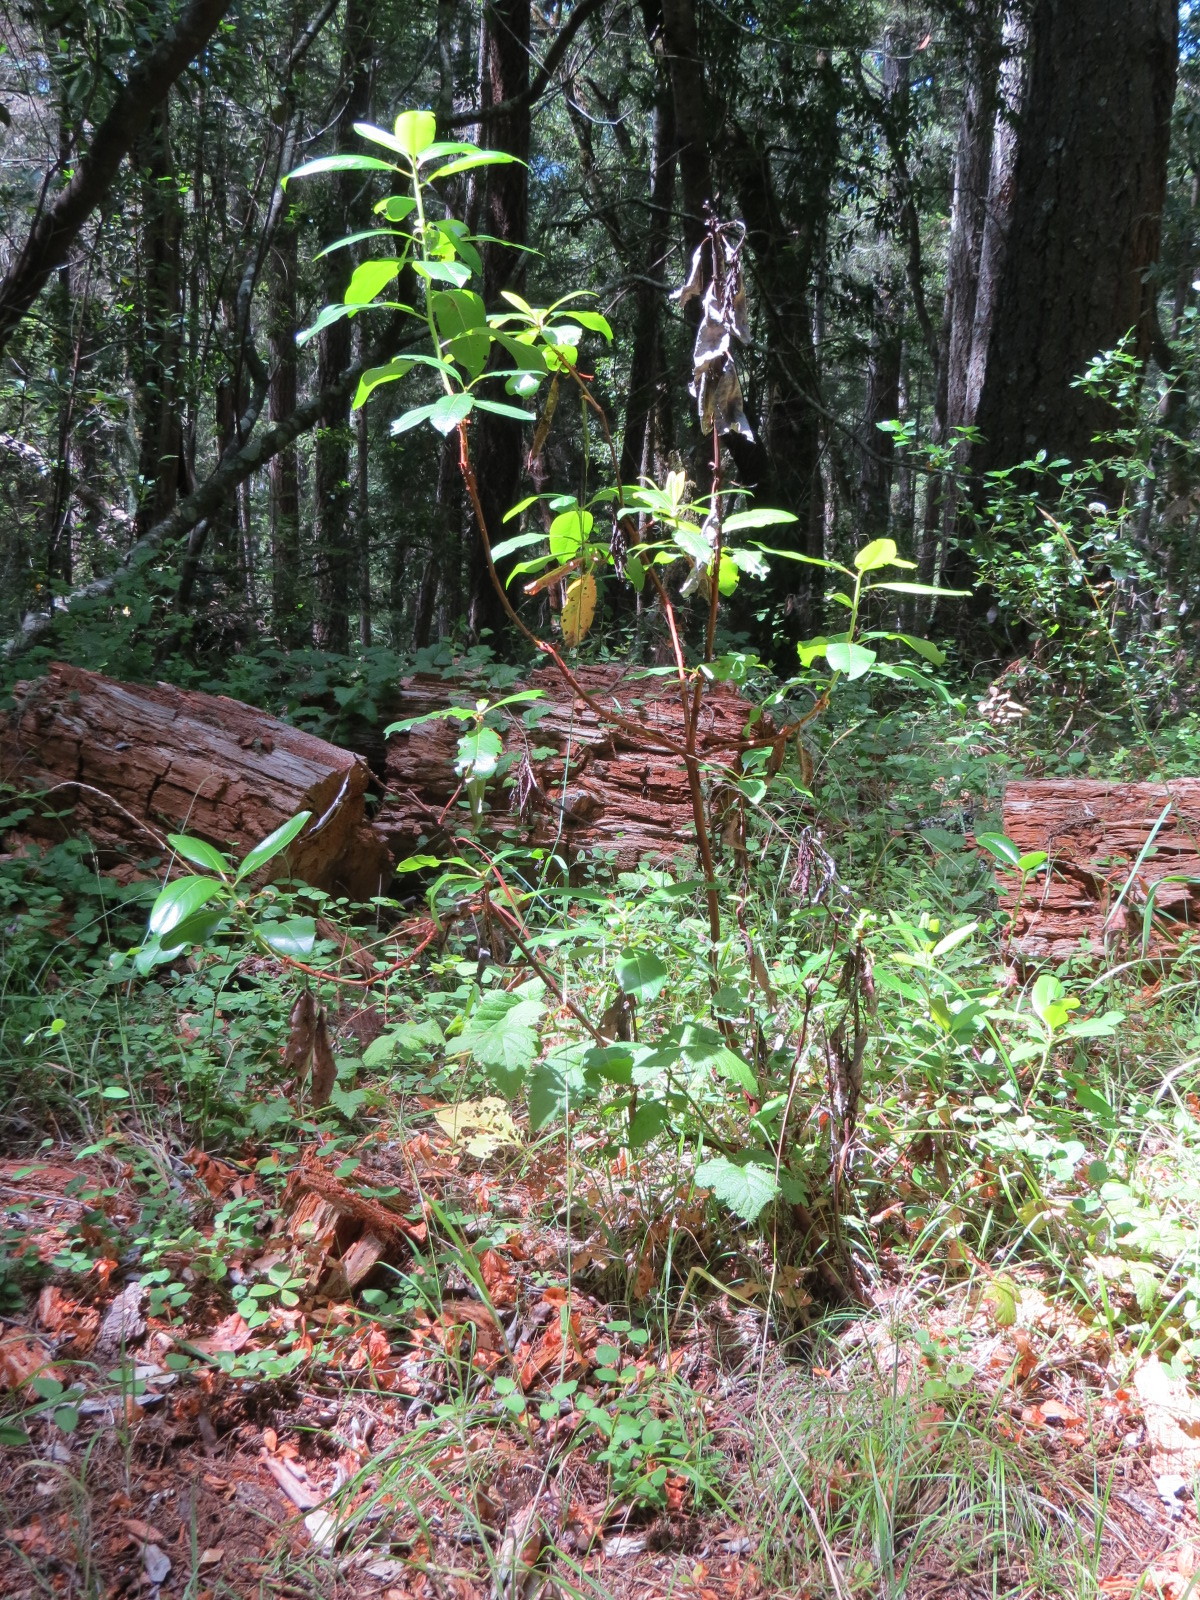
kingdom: Plantae
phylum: Tracheophyta
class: Magnoliopsida
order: Ericales
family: Ericaceae
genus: Arbutus
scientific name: Arbutus menziesii
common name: Pacific madrone
